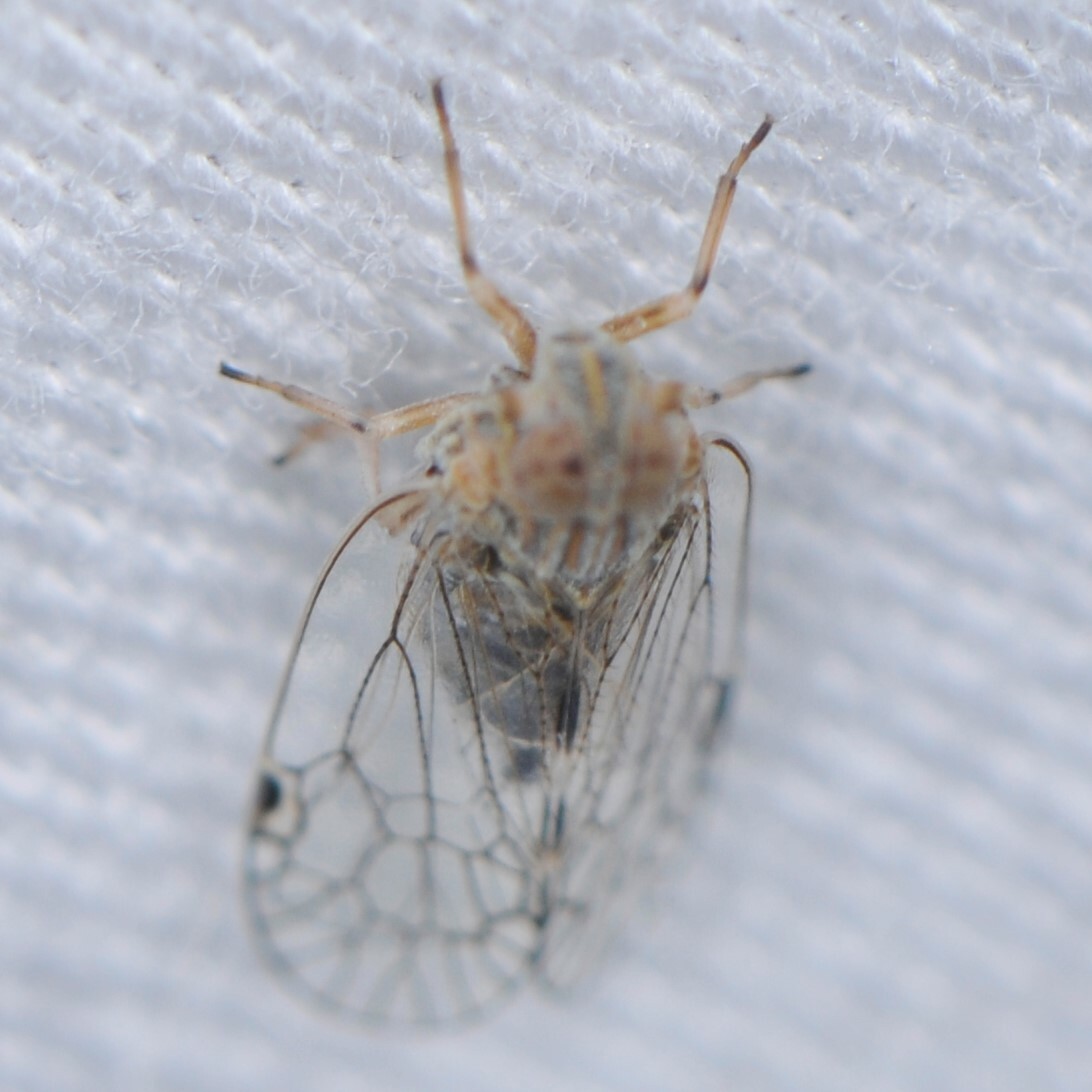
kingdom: Animalia
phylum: Arthropoda
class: Insecta
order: Hemiptera
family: Cixiidae
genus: Oecleus
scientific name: Oecleus
